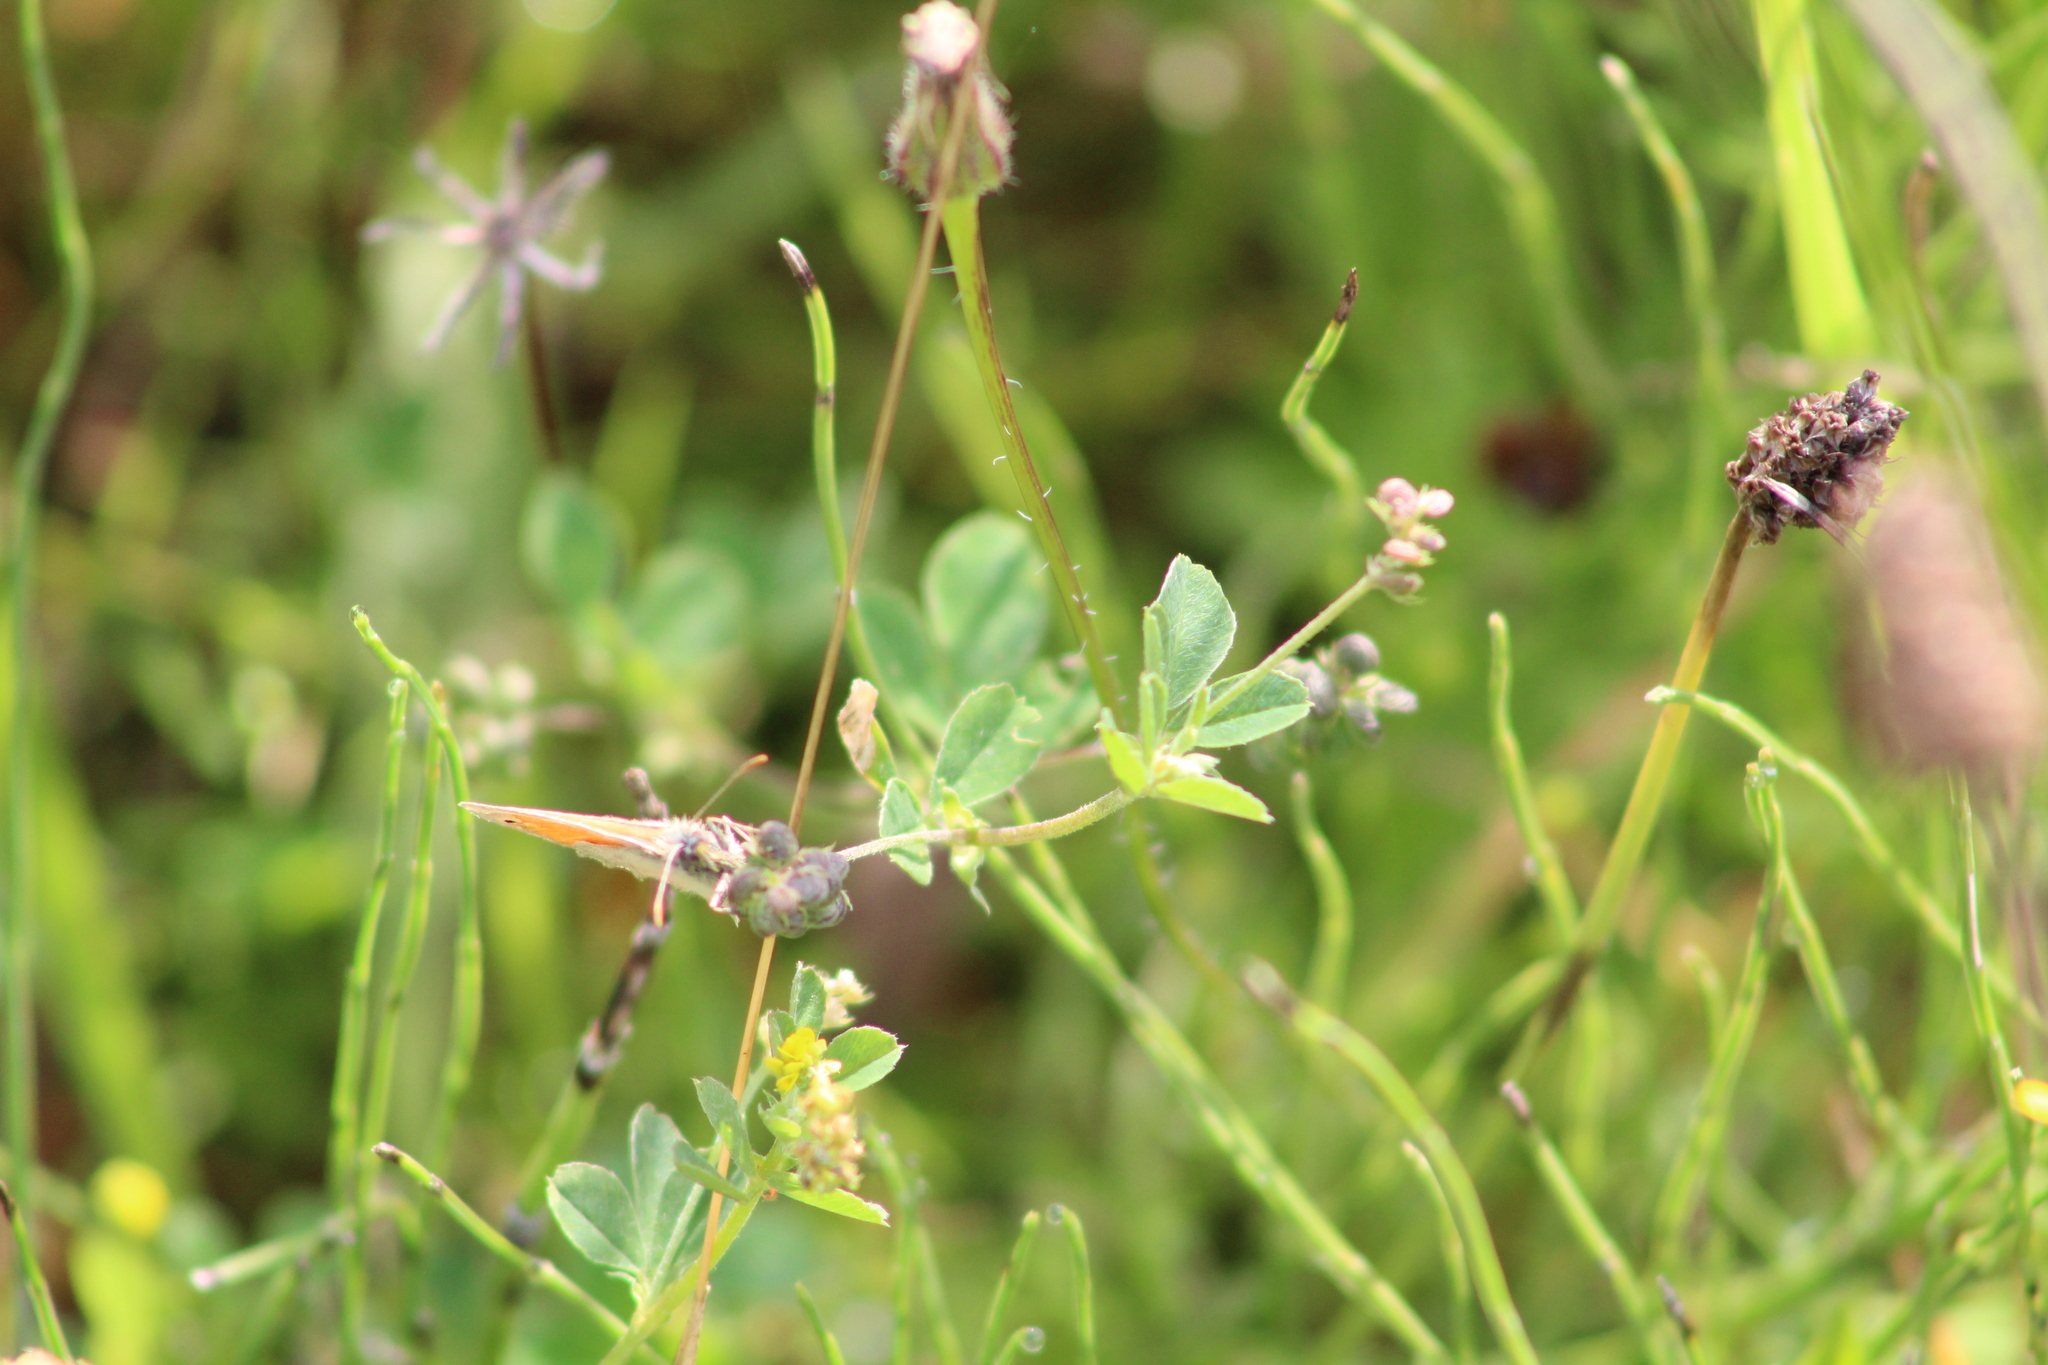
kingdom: Animalia
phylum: Arthropoda
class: Insecta
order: Lepidoptera
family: Nymphalidae
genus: Coenonympha
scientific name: Coenonympha pamphilus
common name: Small heath
